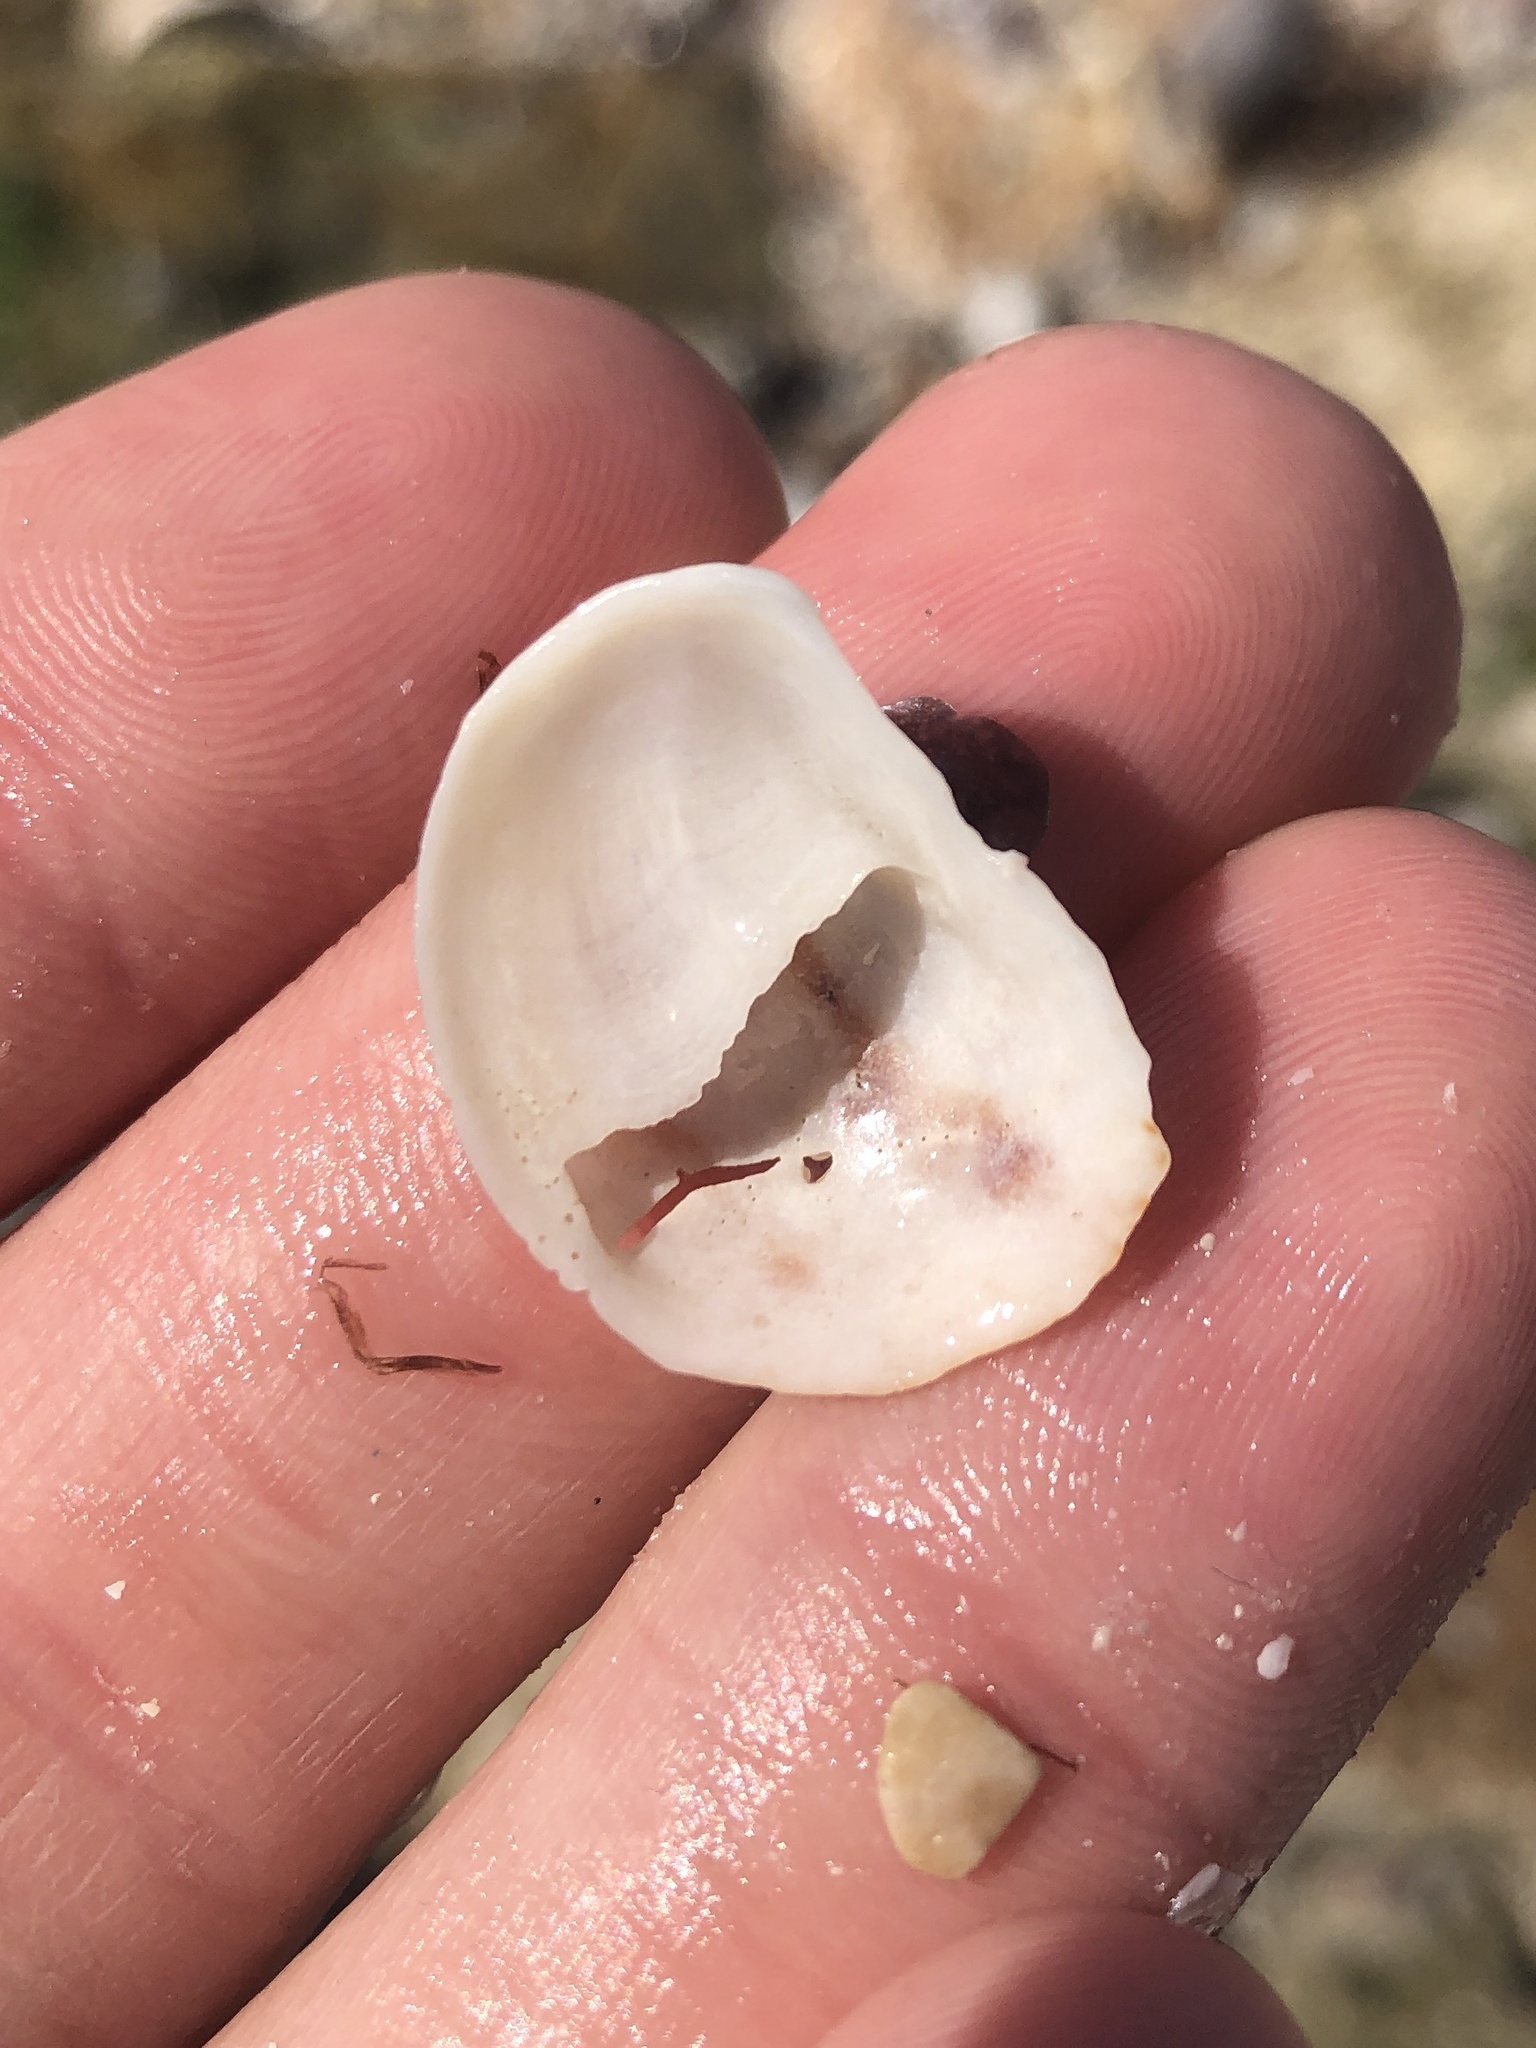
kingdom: Animalia
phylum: Mollusca
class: Gastropoda
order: Littorinimorpha
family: Calyptraeidae
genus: Bostrycapulus
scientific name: Bostrycapulus aculeatus
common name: Spiny slippersnail
